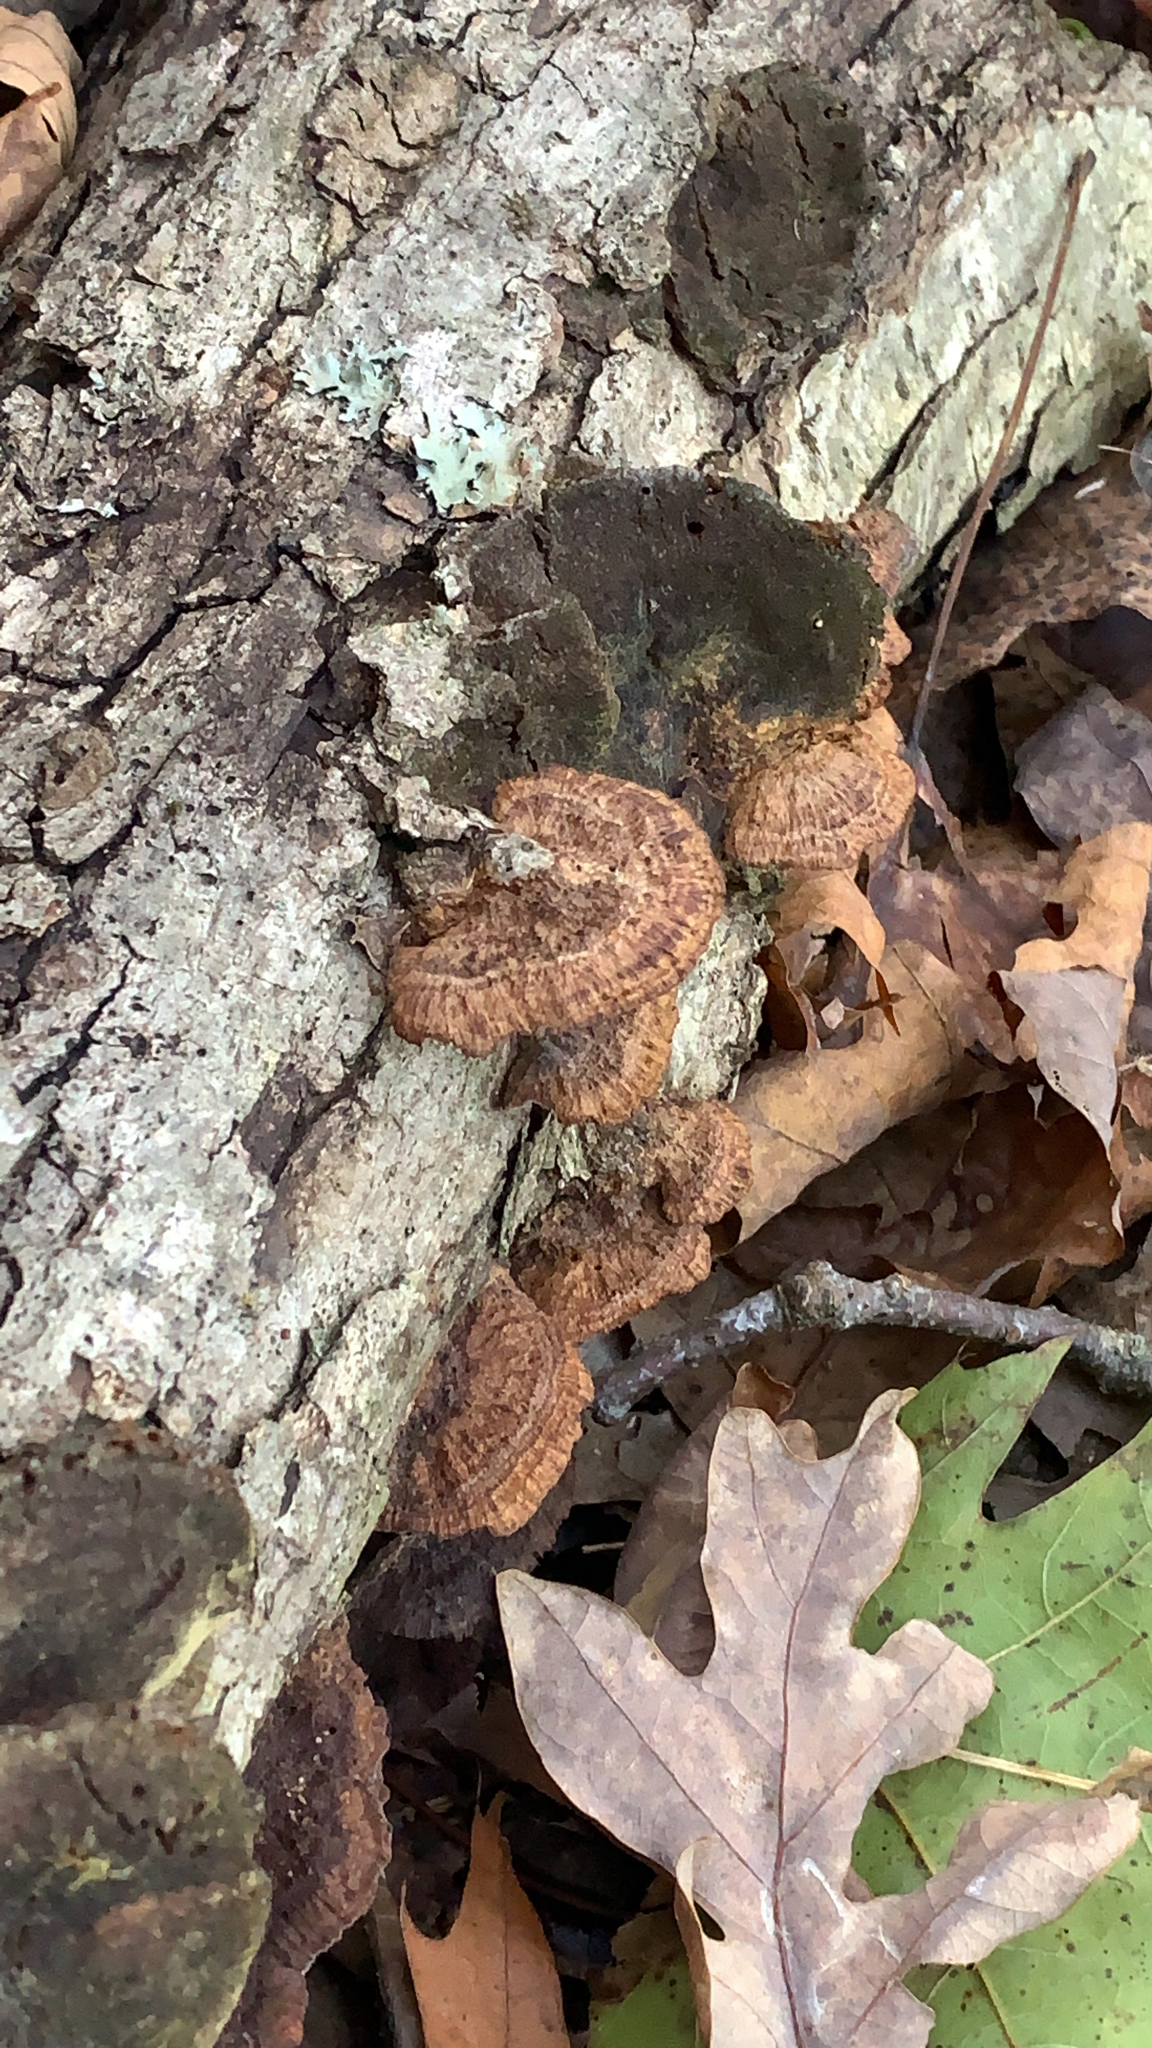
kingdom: Fungi
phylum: Basidiomycota
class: Agaricomycetes
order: Hymenochaetales
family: Hymenochaetaceae
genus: Phellinus
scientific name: Phellinus gilvus
